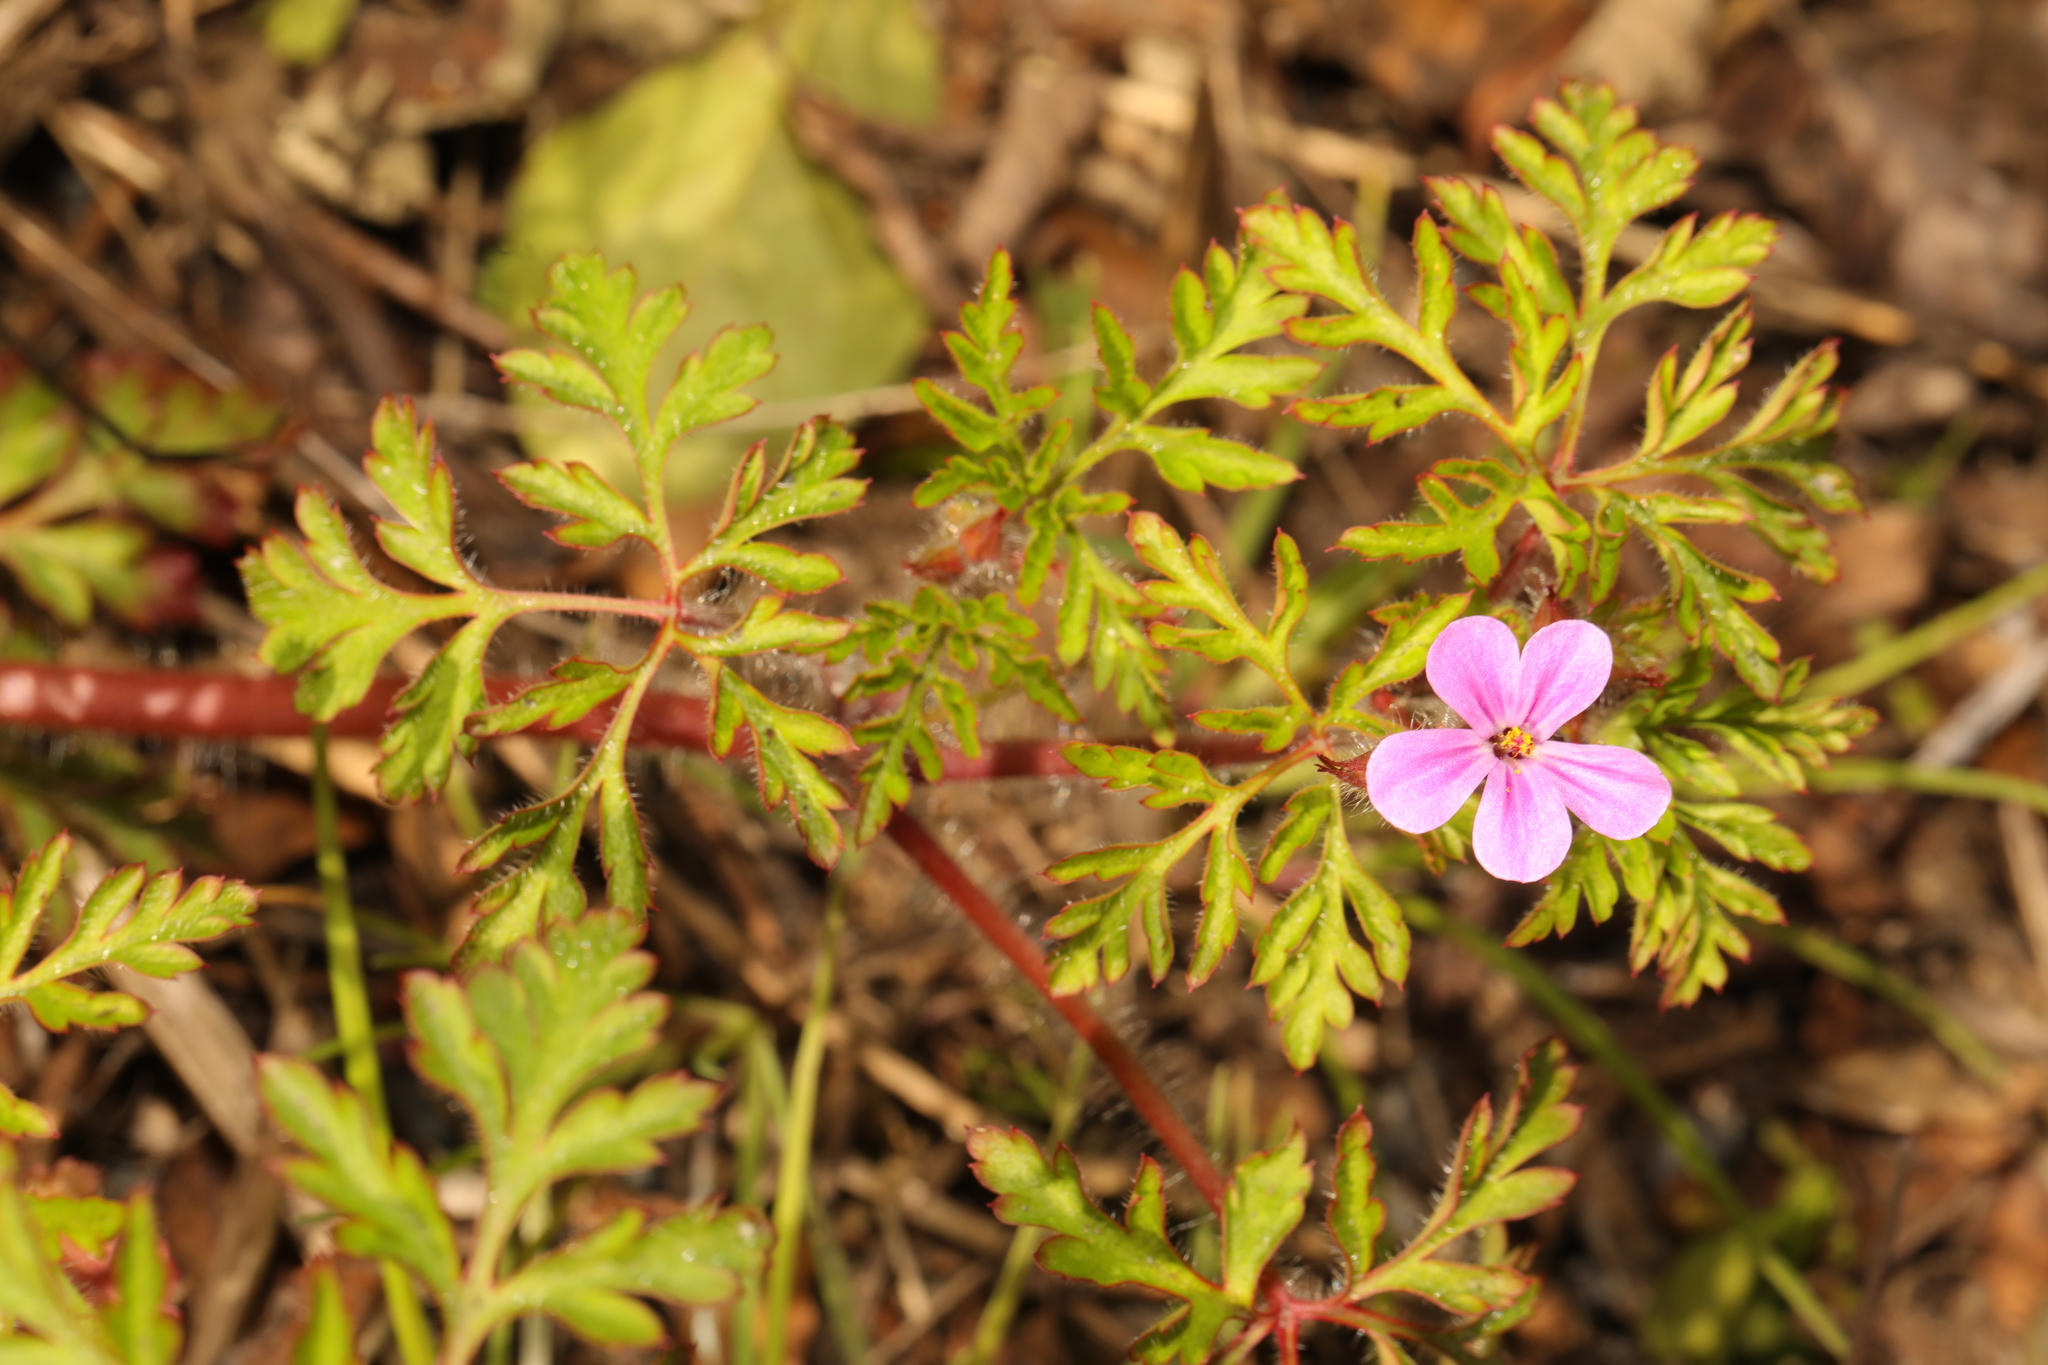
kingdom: Plantae
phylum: Tracheophyta
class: Magnoliopsida
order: Geraniales
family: Geraniaceae
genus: Geranium
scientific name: Geranium robertianum
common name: Herb-robert
